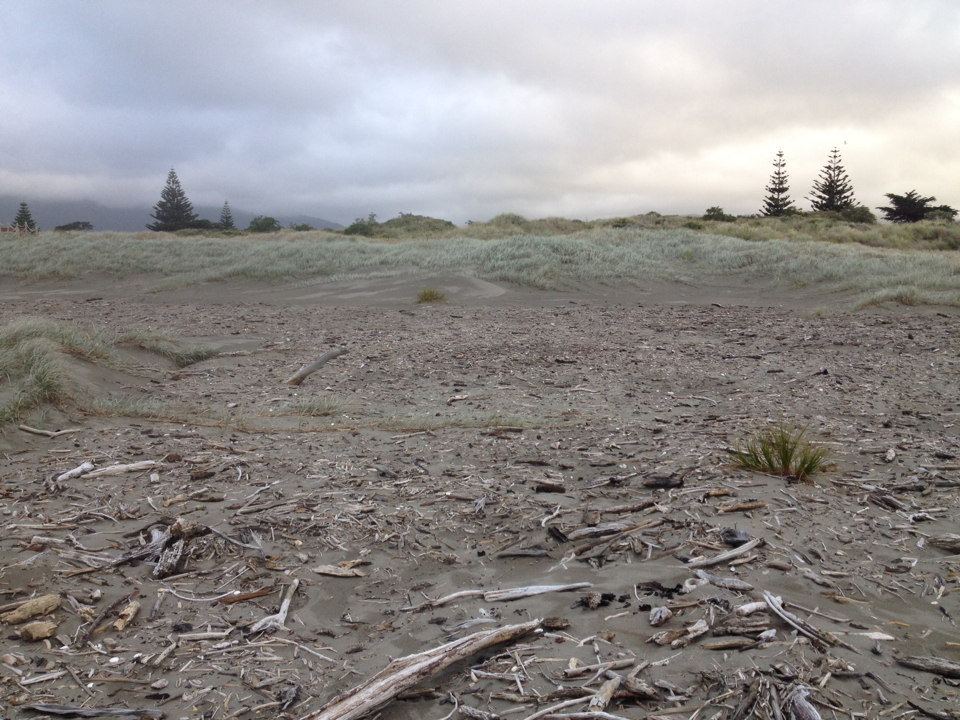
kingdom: Plantae
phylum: Tracheophyta
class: Liliopsida
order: Poales
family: Cyperaceae
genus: Ficinia
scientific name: Ficinia spiralis
